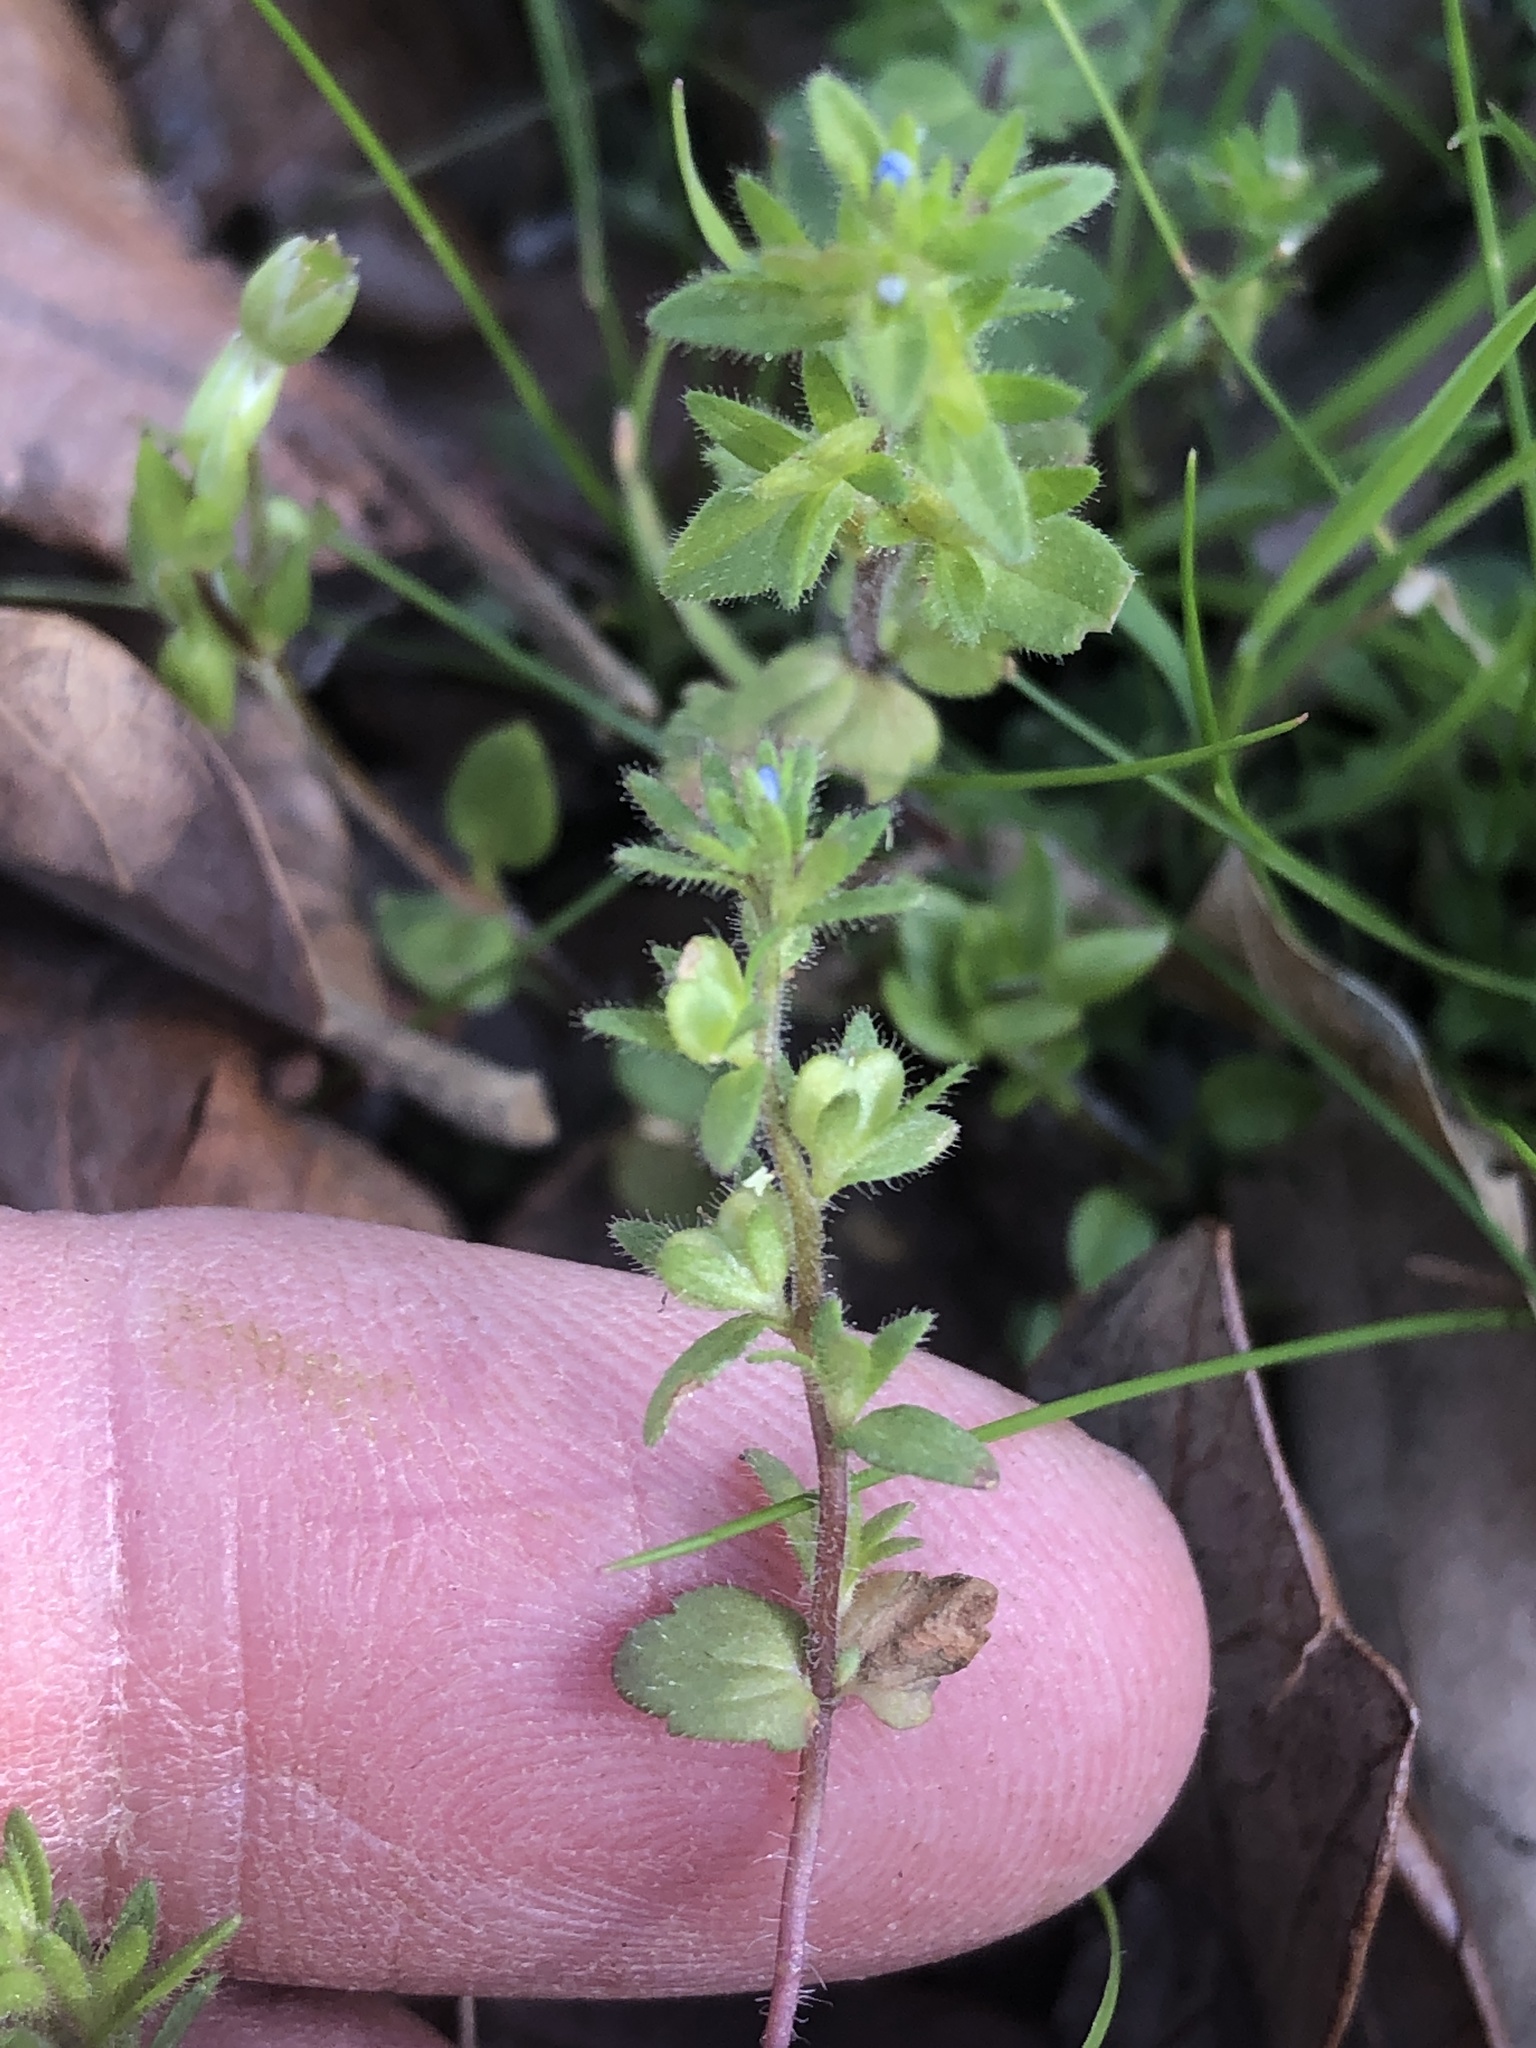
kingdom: Plantae
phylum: Tracheophyta
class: Magnoliopsida
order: Lamiales
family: Plantaginaceae
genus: Veronica
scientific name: Veronica arvensis
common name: Corn speedwell
